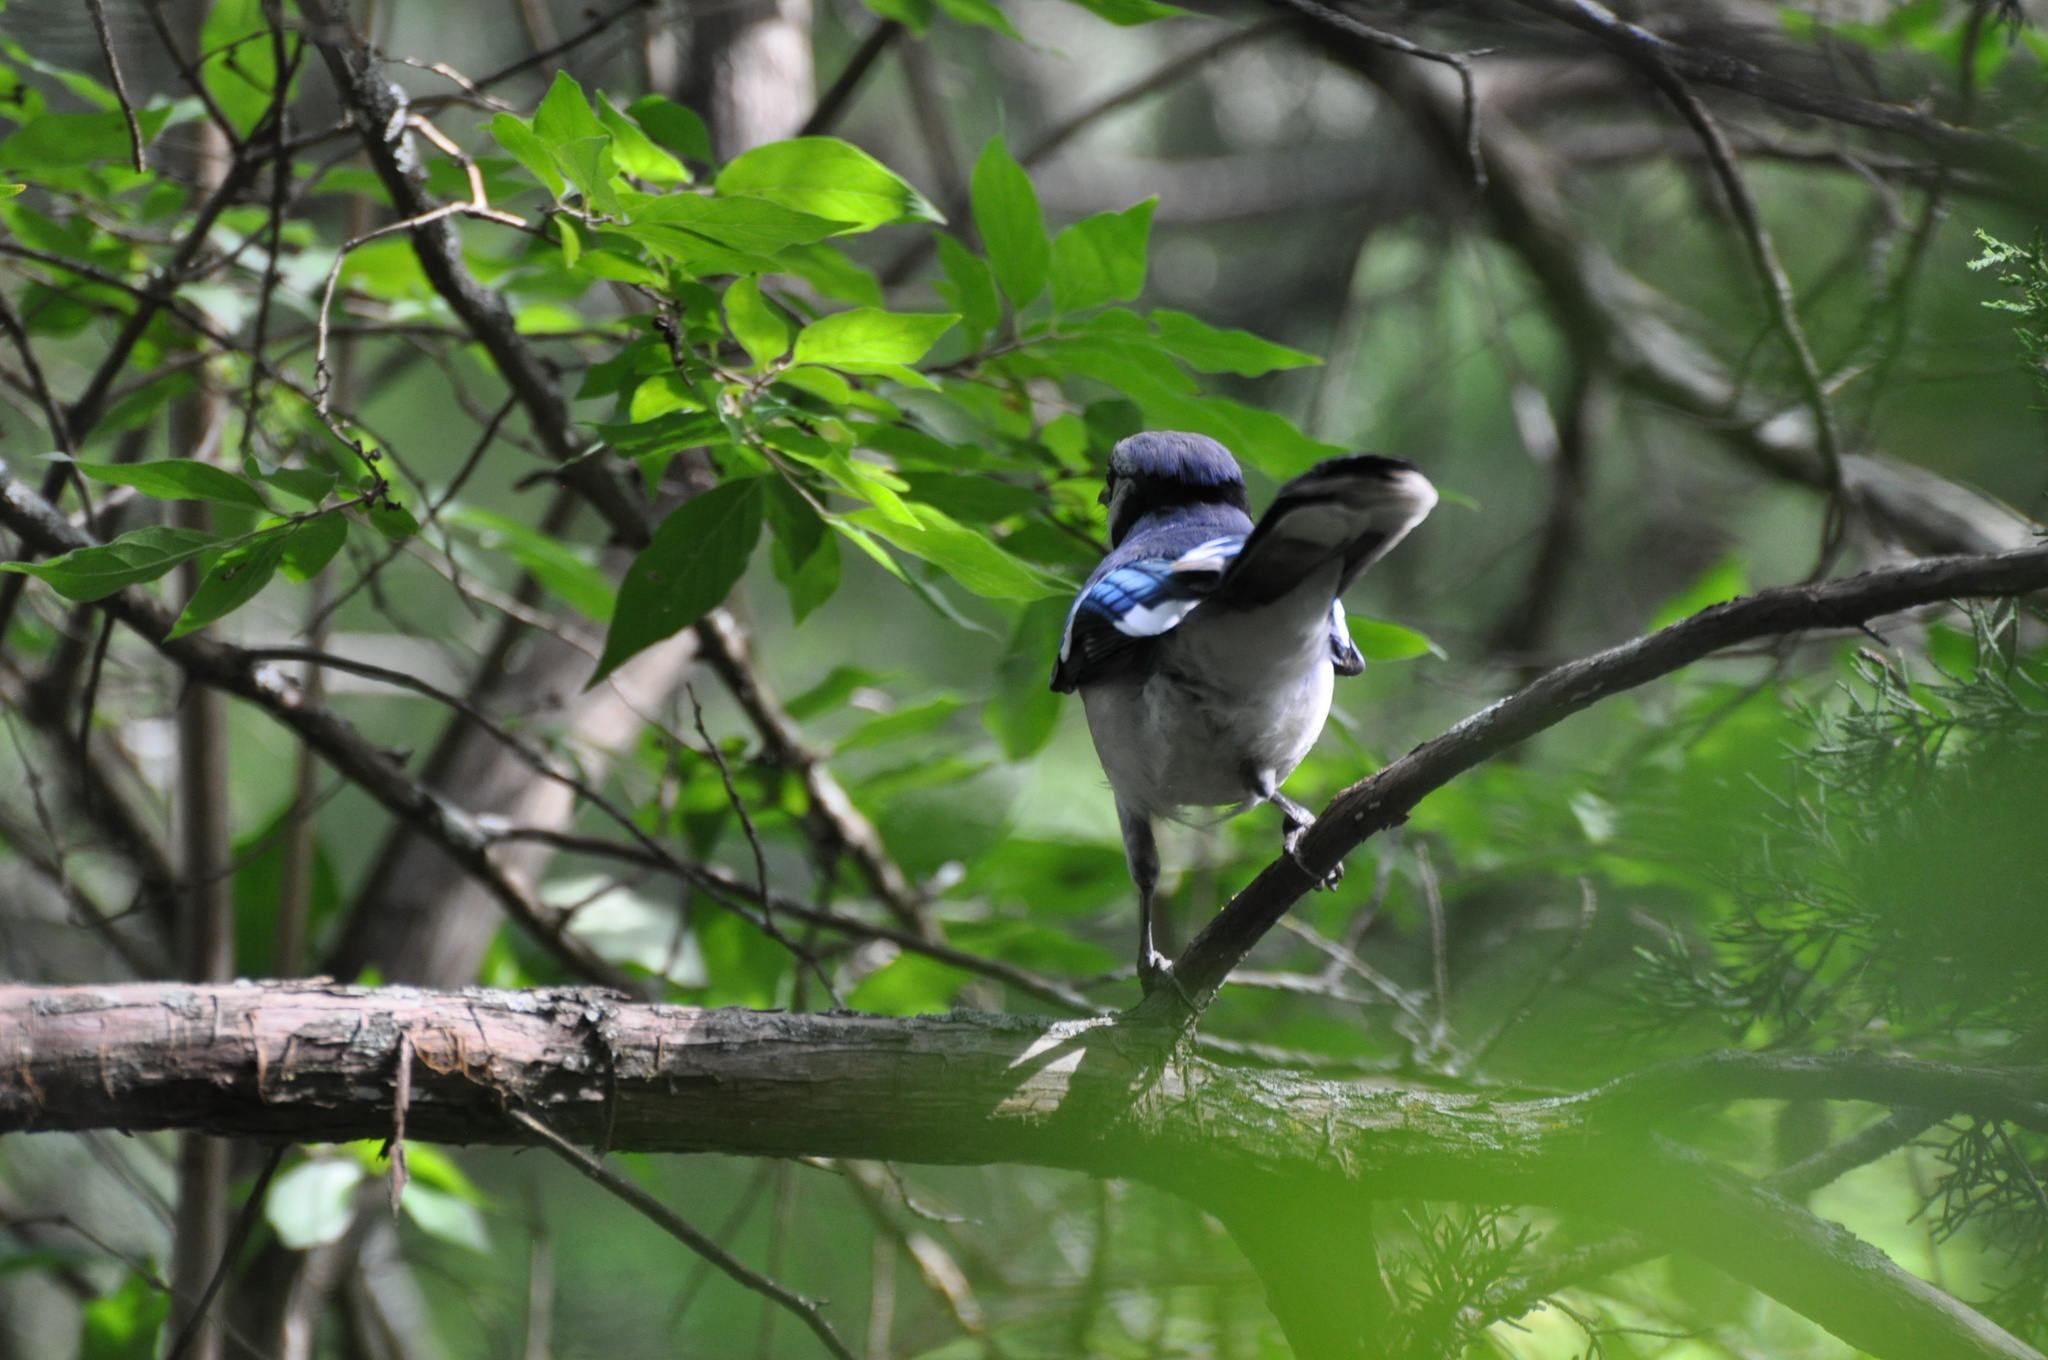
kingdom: Animalia
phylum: Chordata
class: Aves
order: Passeriformes
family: Corvidae
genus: Cyanocitta
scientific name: Cyanocitta cristata
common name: Blue jay
